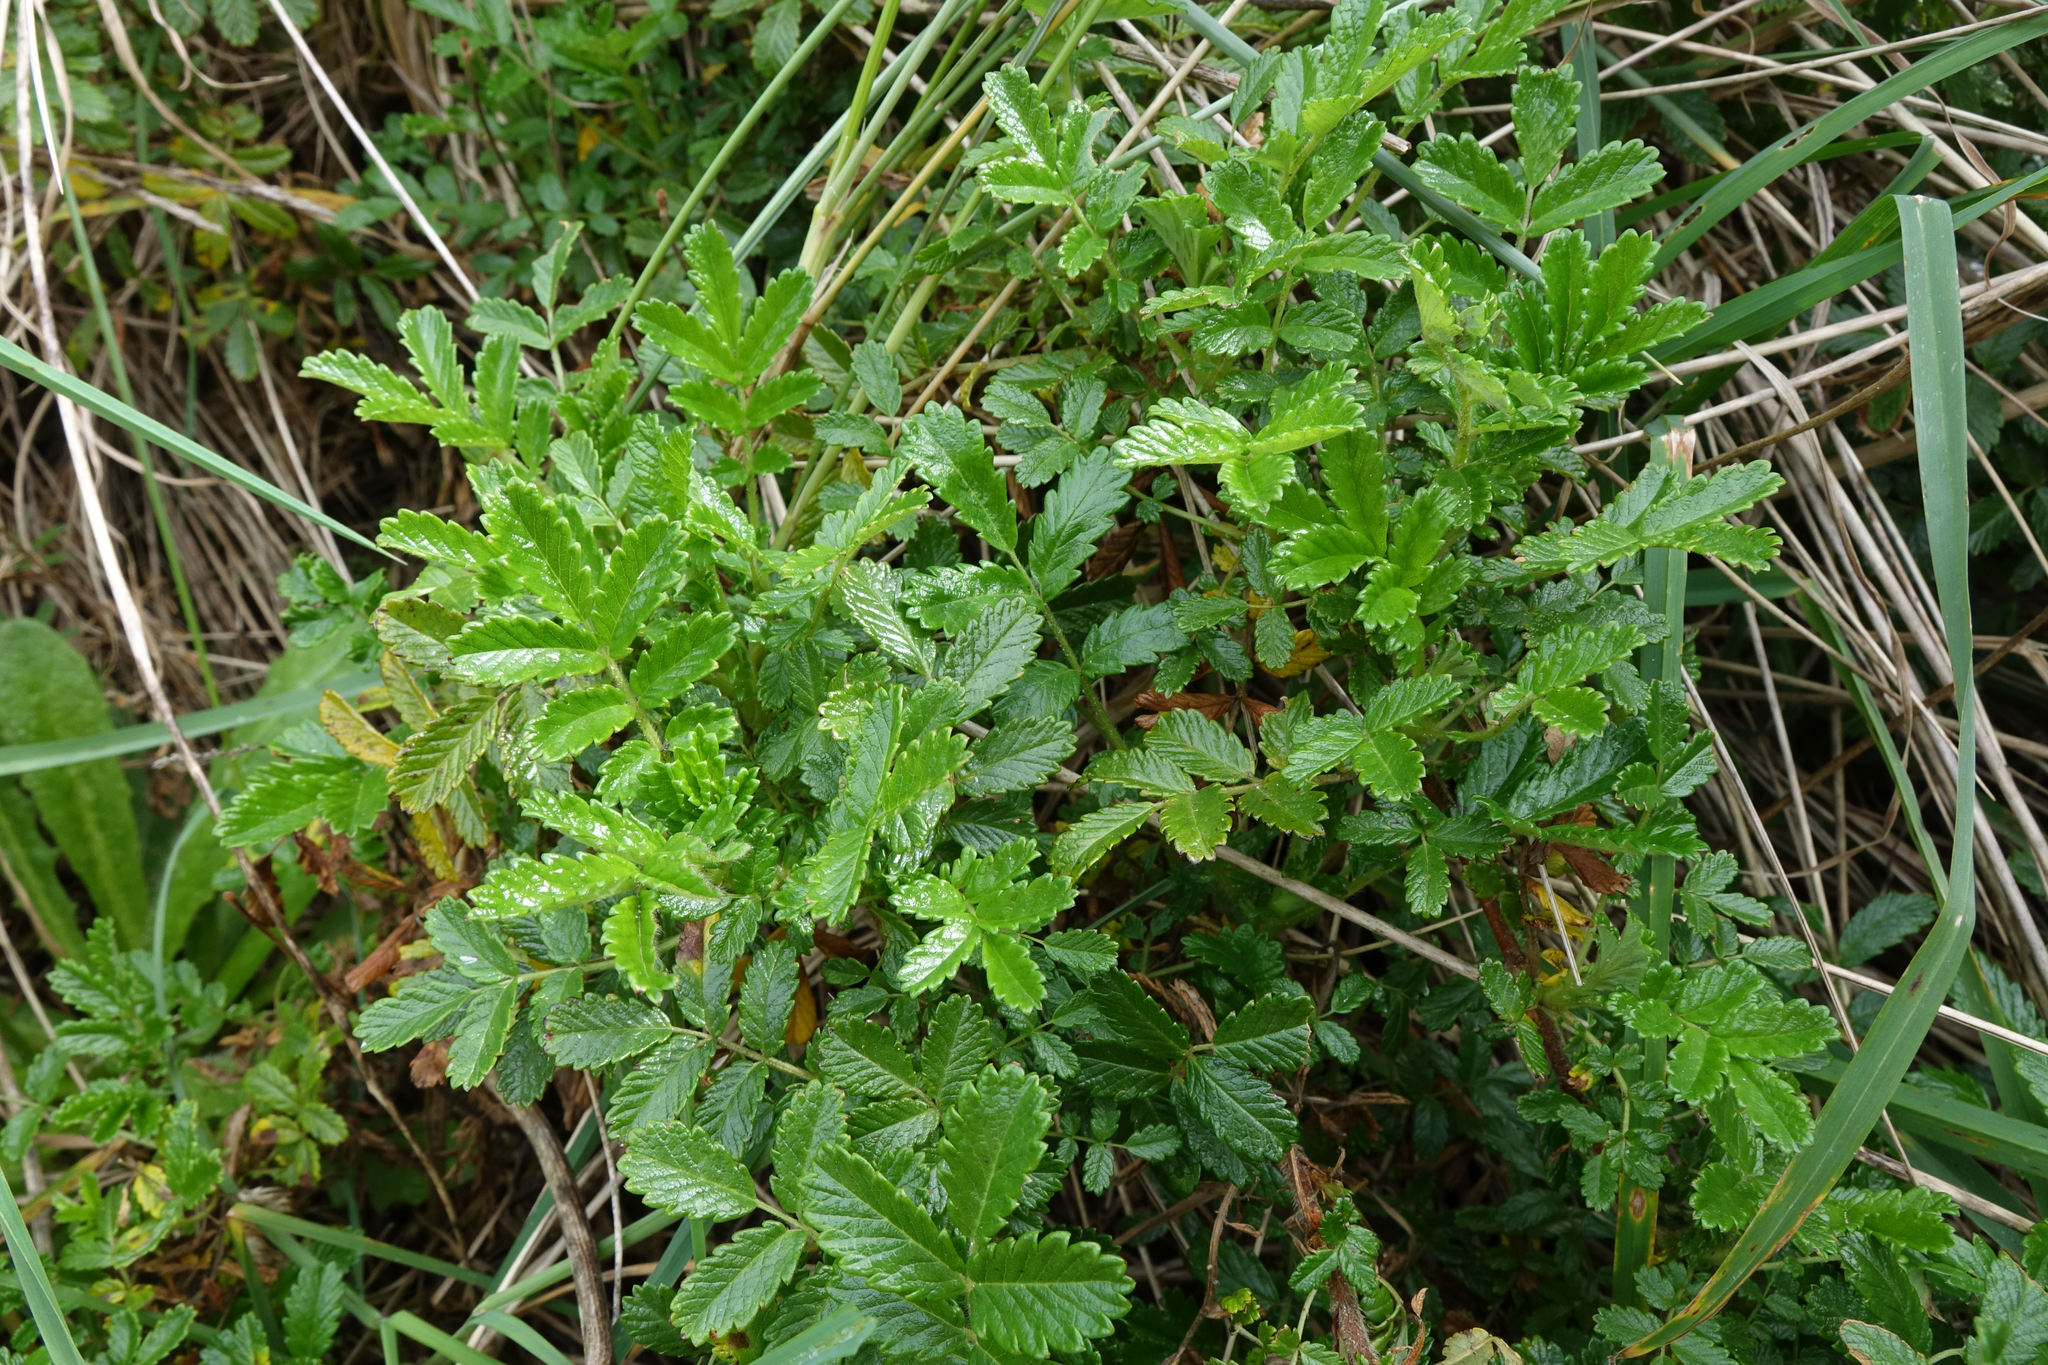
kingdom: Plantae
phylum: Tracheophyta
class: Magnoliopsida
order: Rosales
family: Rosaceae
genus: Acaena
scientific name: Acaena pallida
